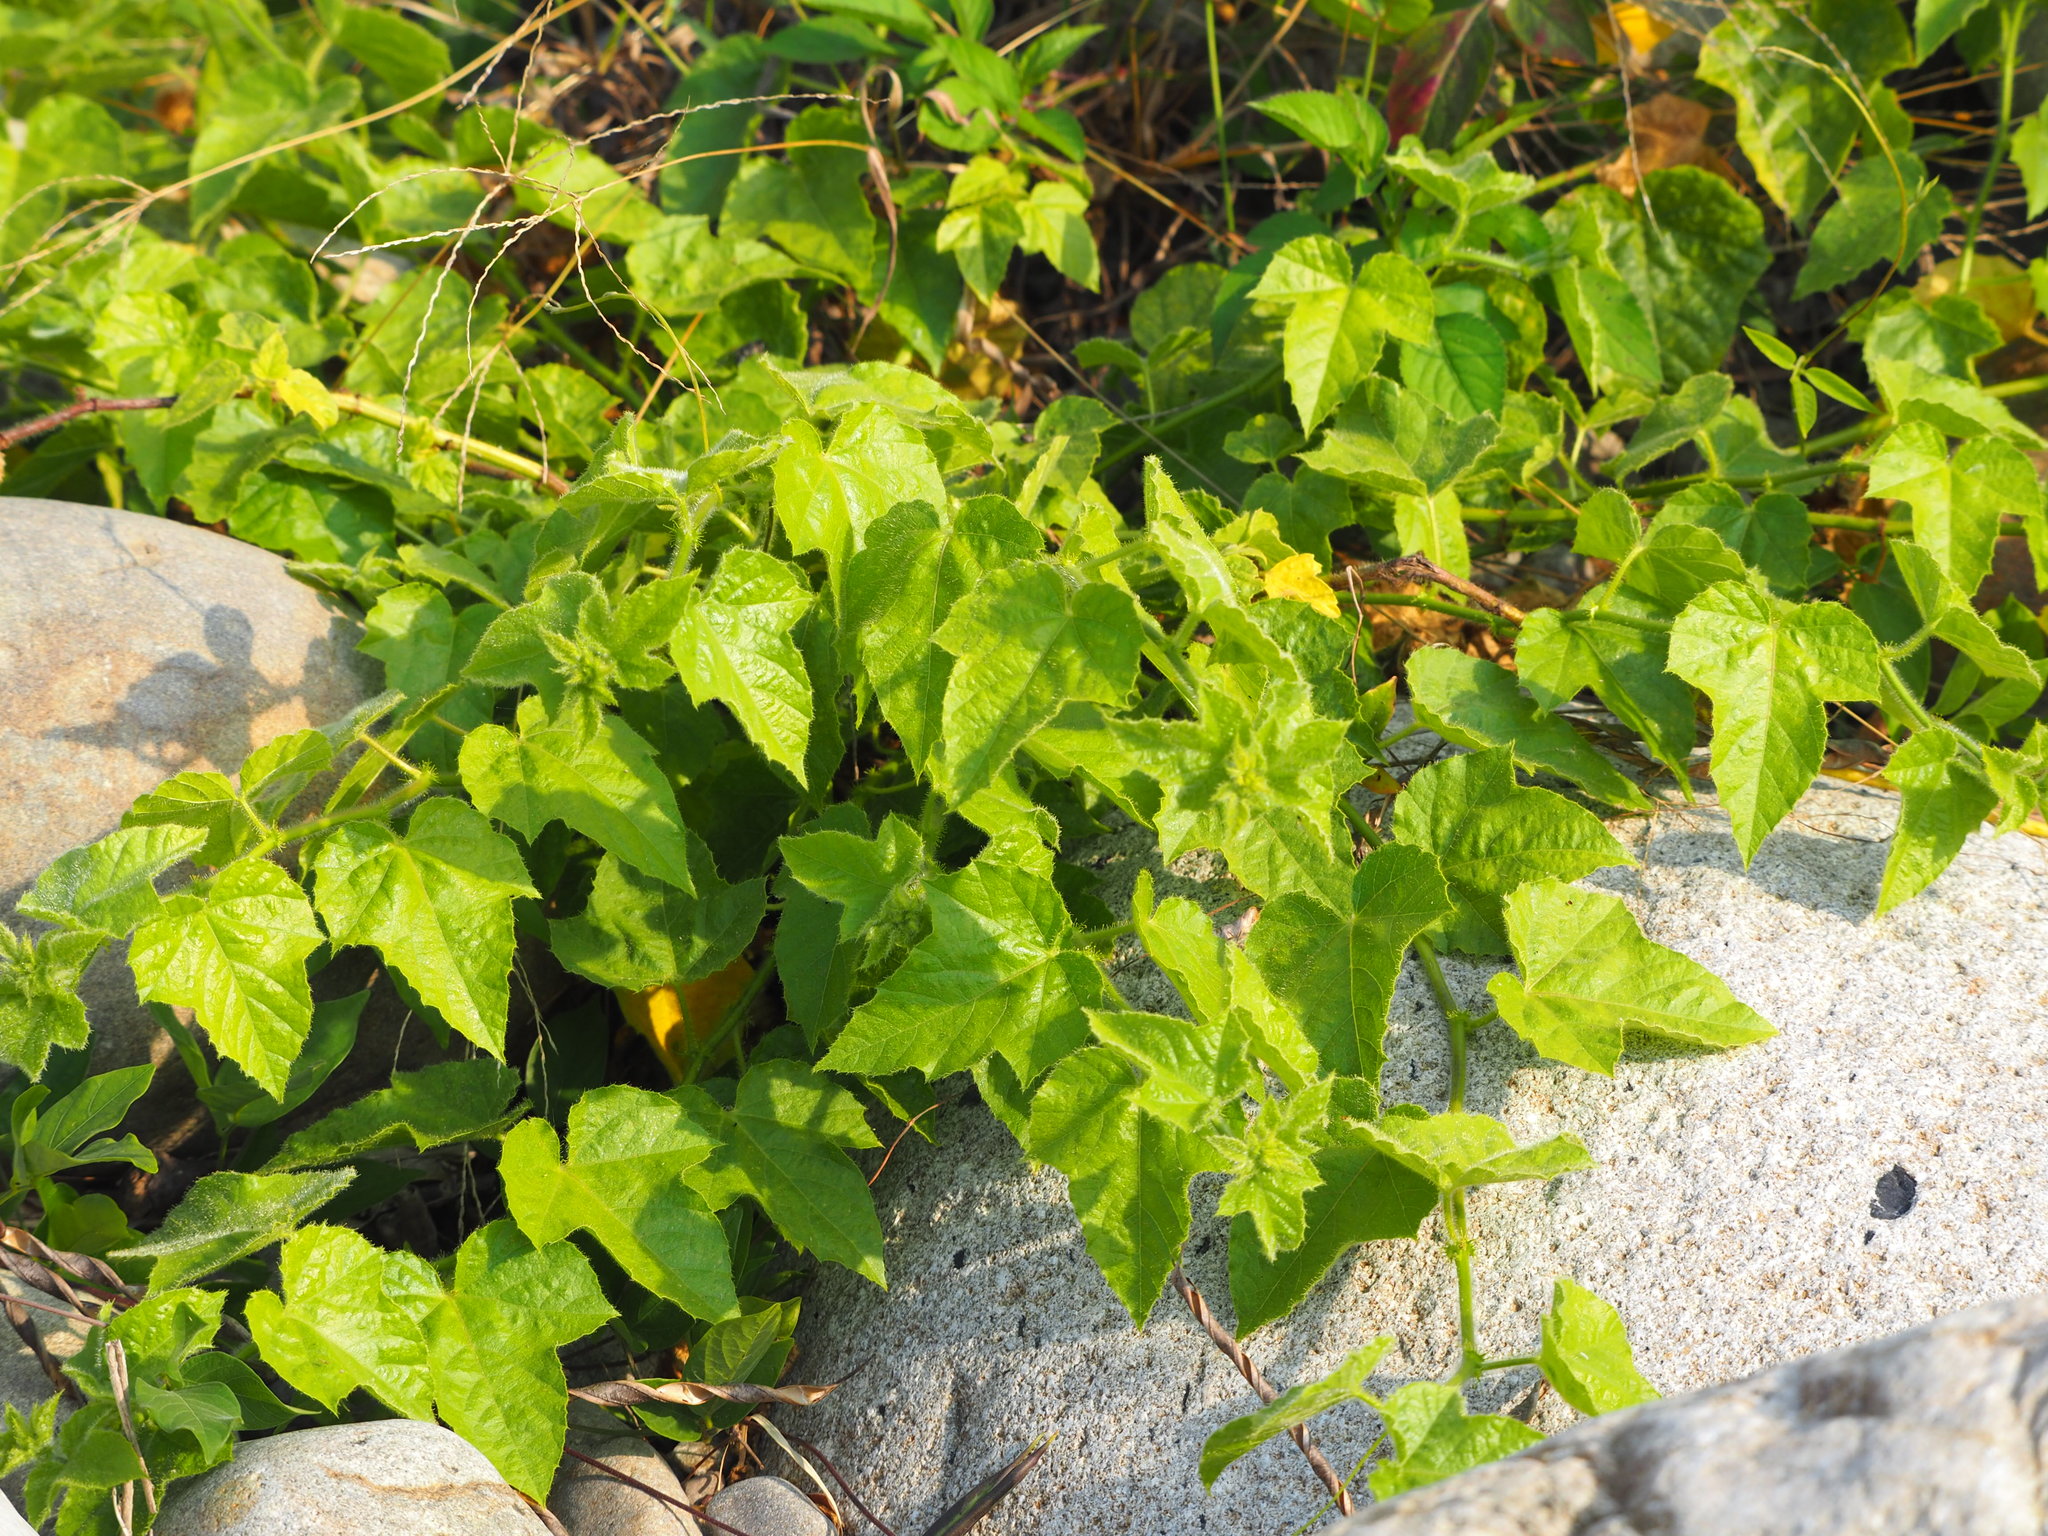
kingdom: Plantae
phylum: Tracheophyta
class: Magnoliopsida
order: Malpighiales
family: Passifloraceae
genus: Passiflora
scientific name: Passiflora vesicaria
